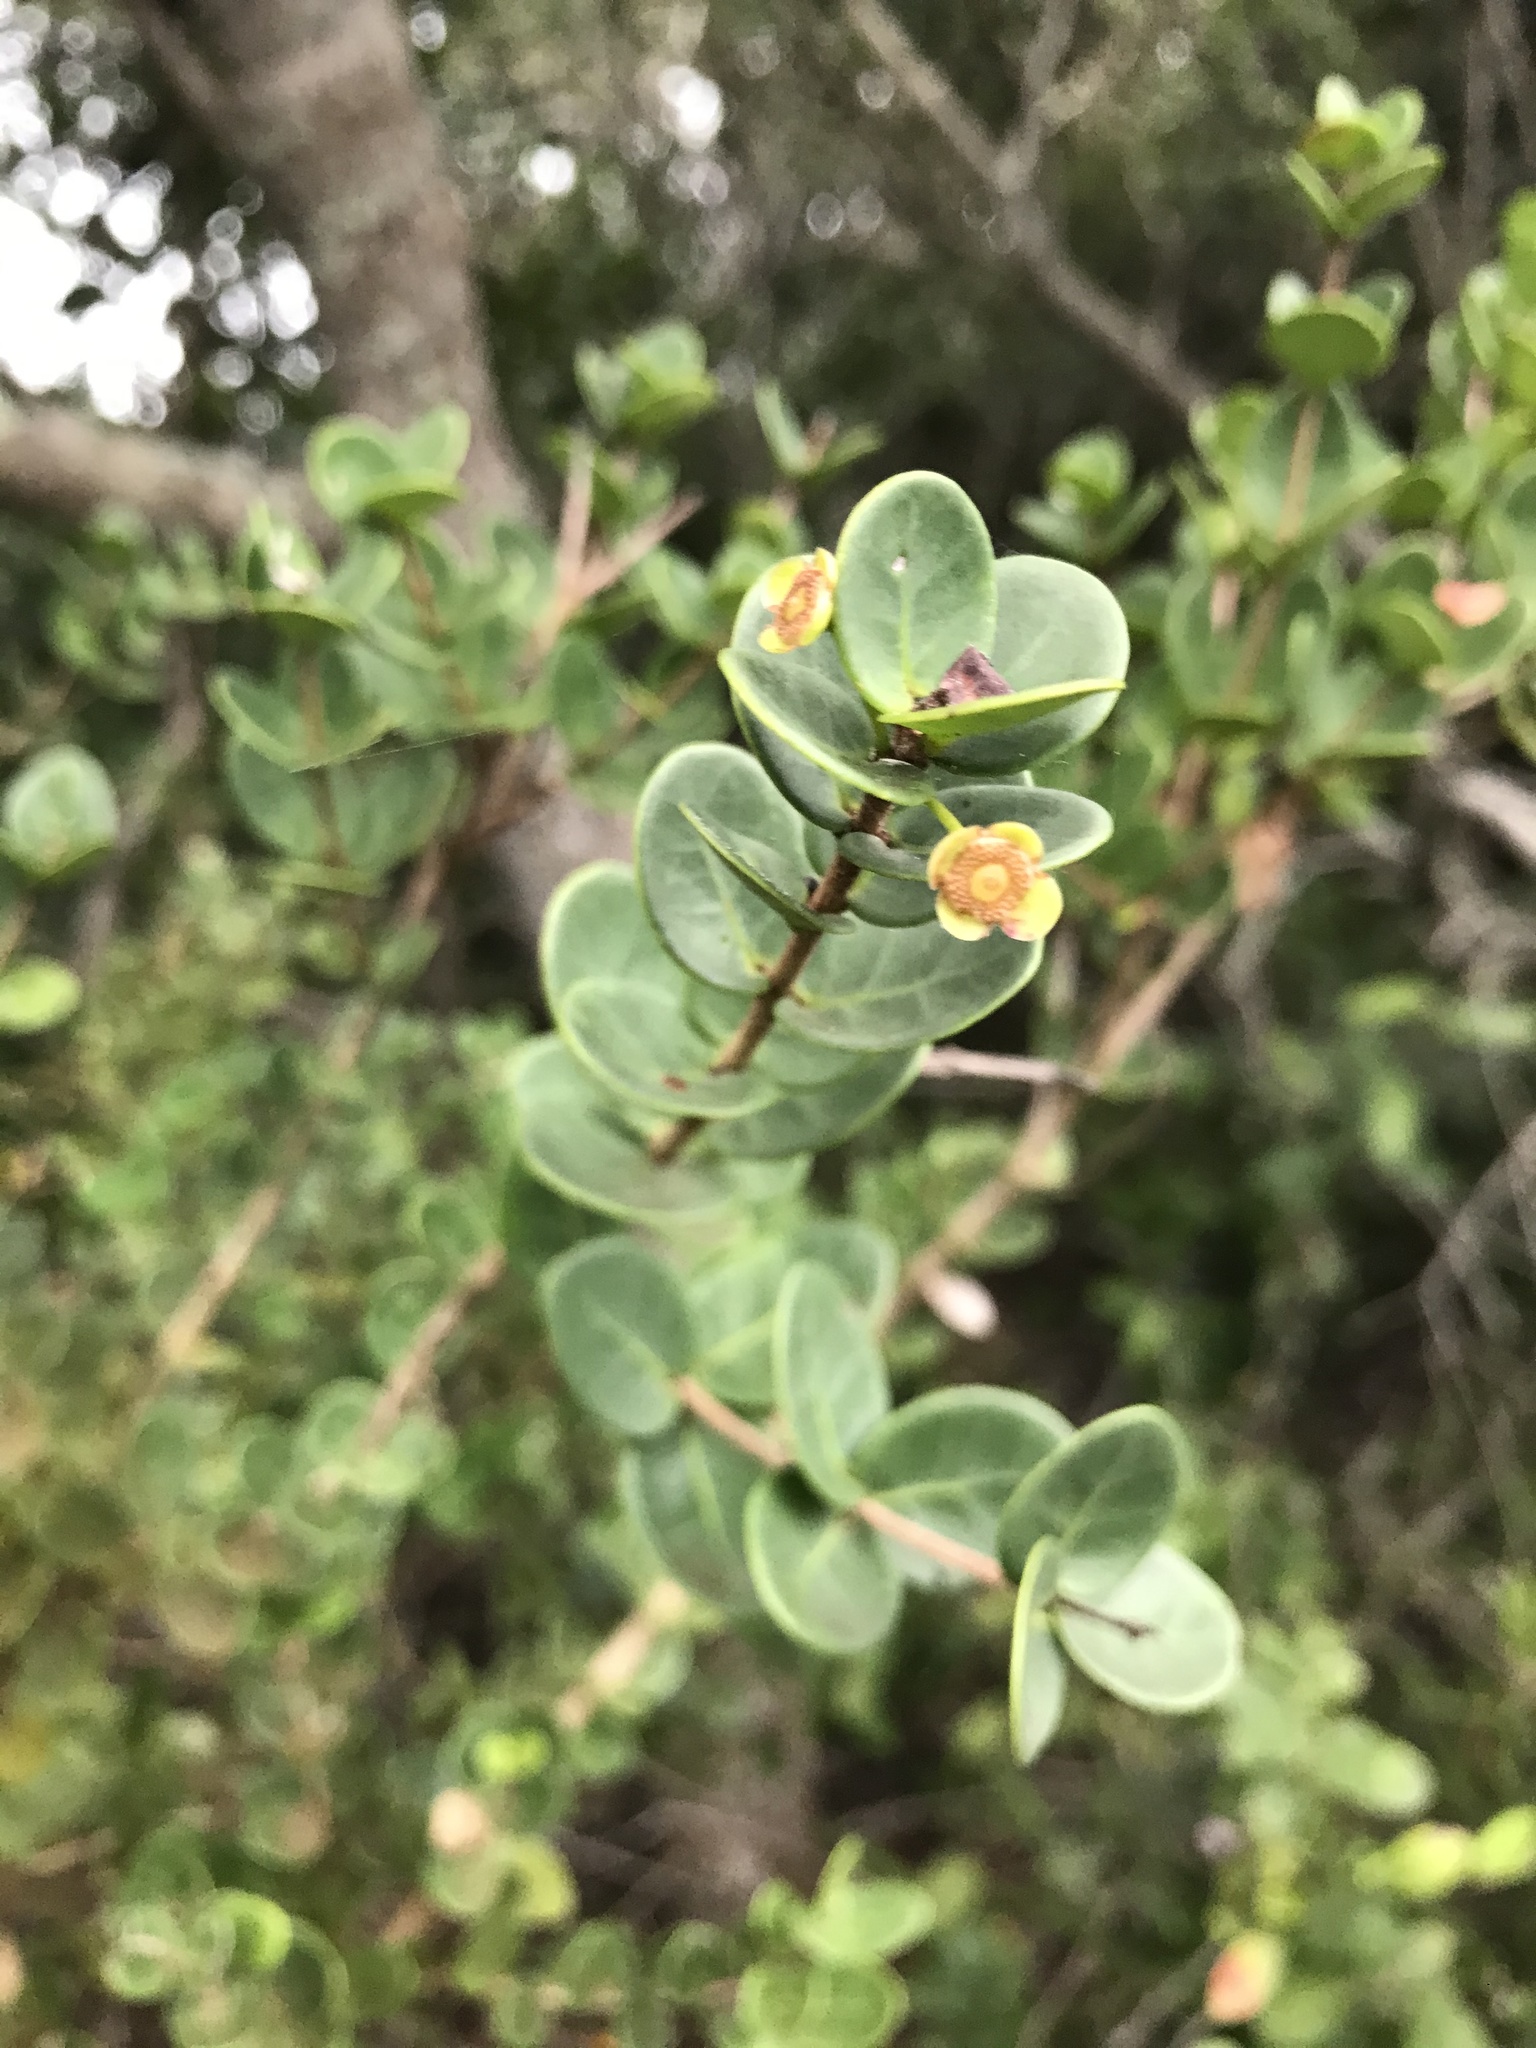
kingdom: Plantae
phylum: Tracheophyta
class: Magnoliopsida
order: Myrtales
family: Myrtaceae
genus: Eugenia
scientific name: Eugenia capensis
